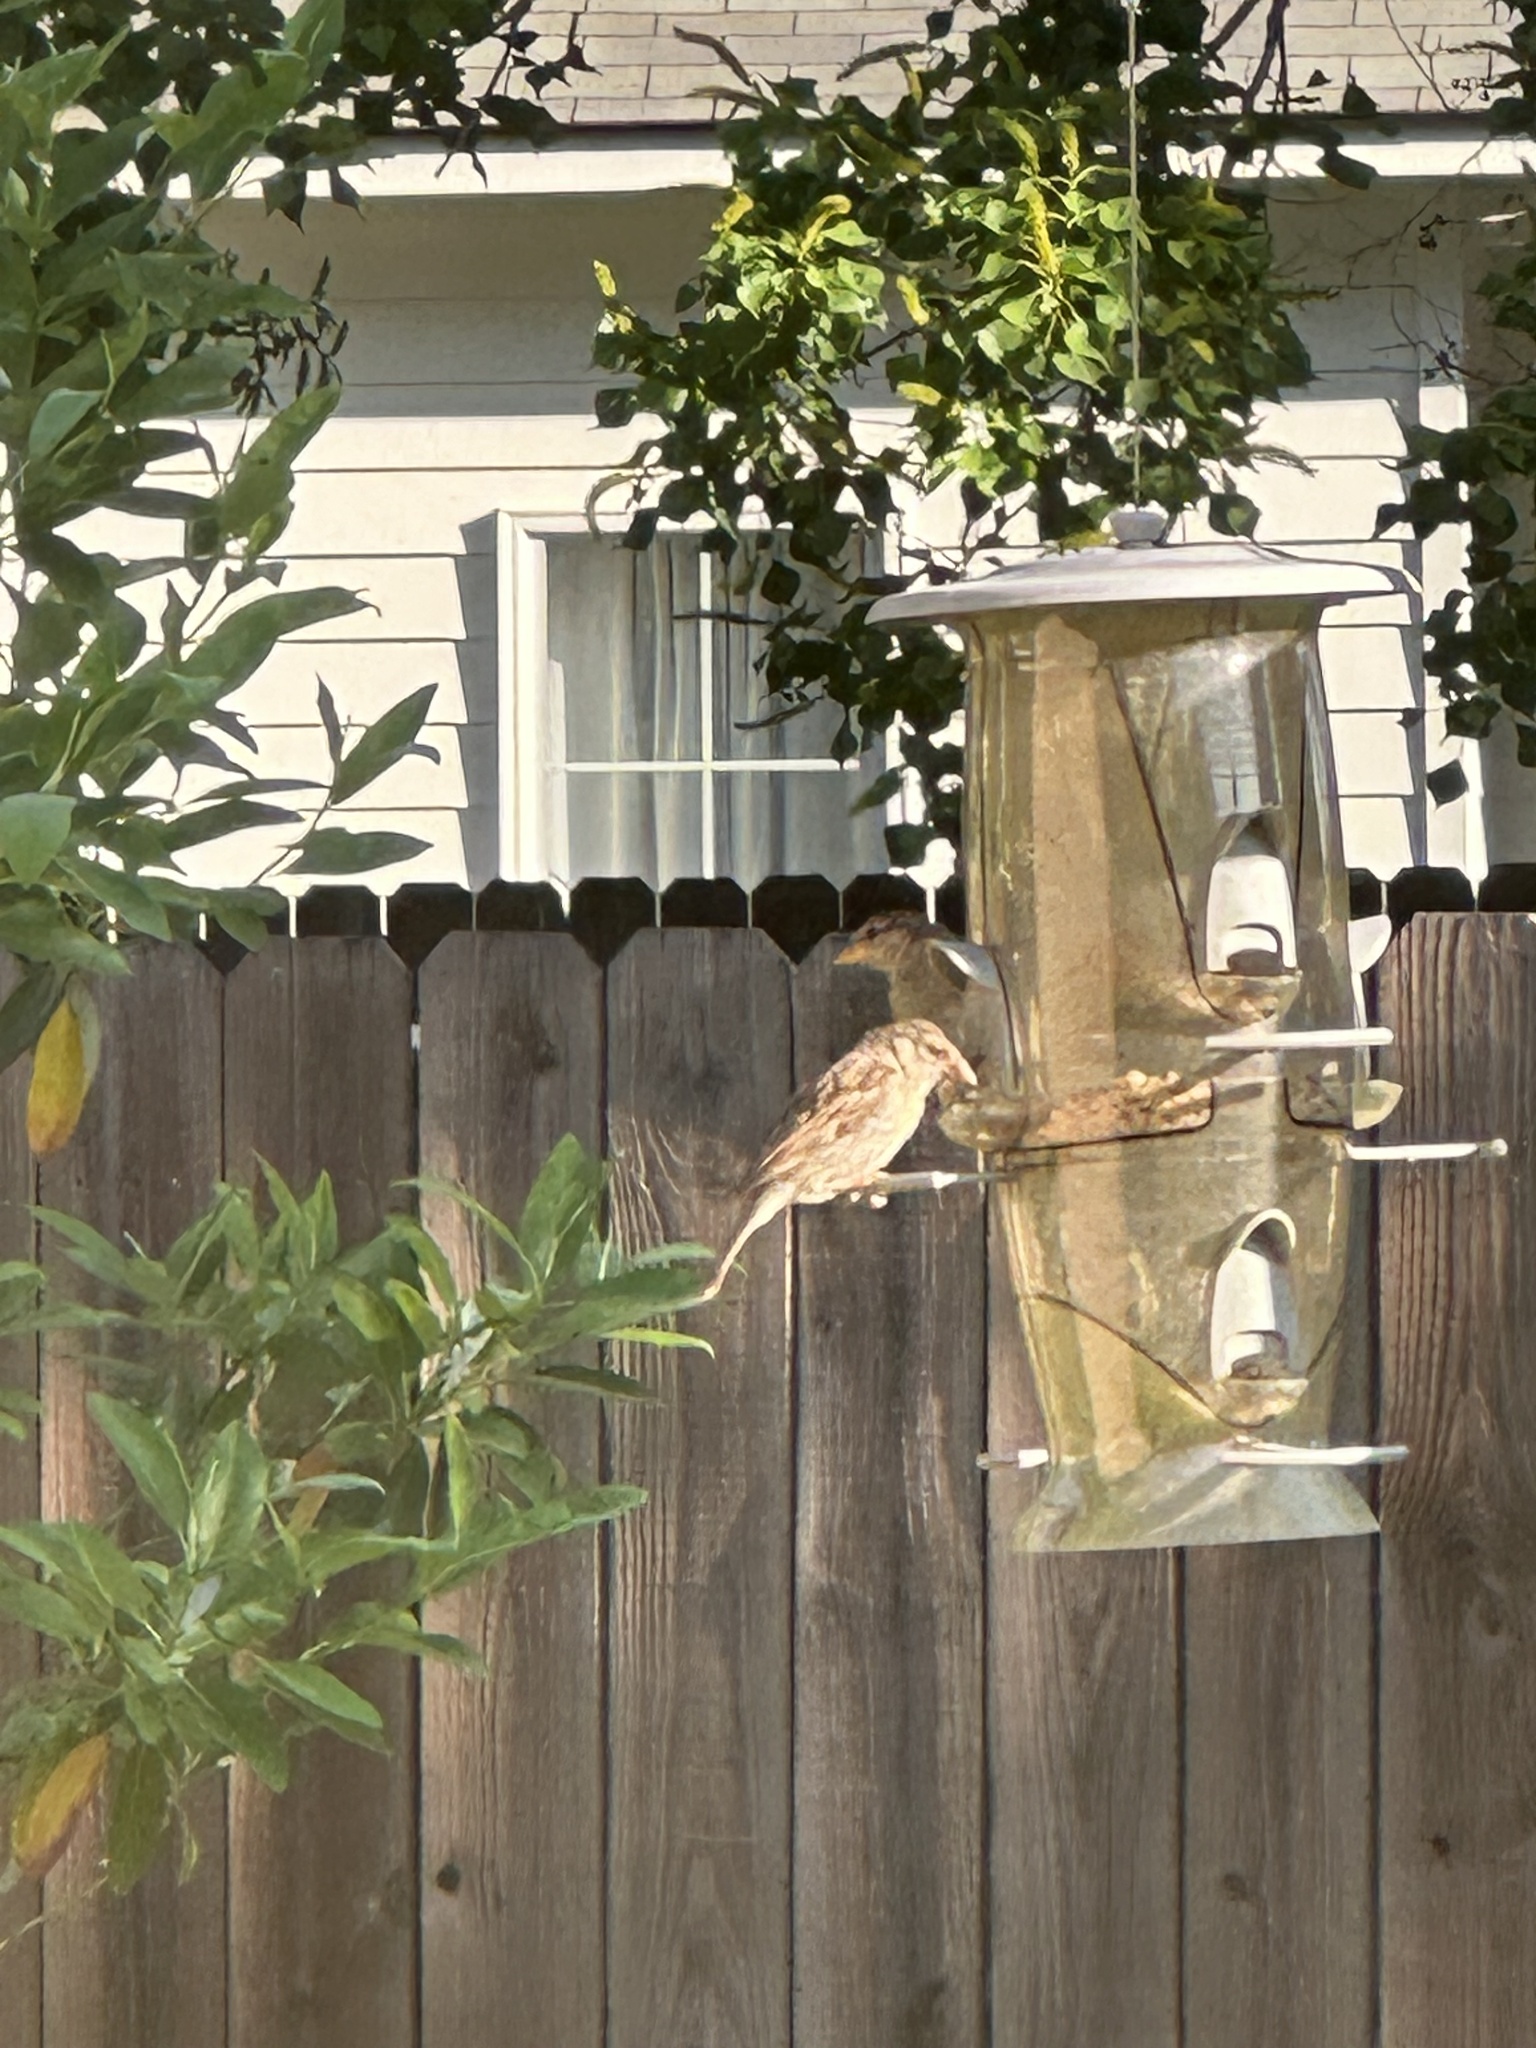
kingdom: Animalia
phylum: Chordata
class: Aves
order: Passeriformes
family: Passeridae
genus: Passer
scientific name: Passer domesticus
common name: House sparrow
